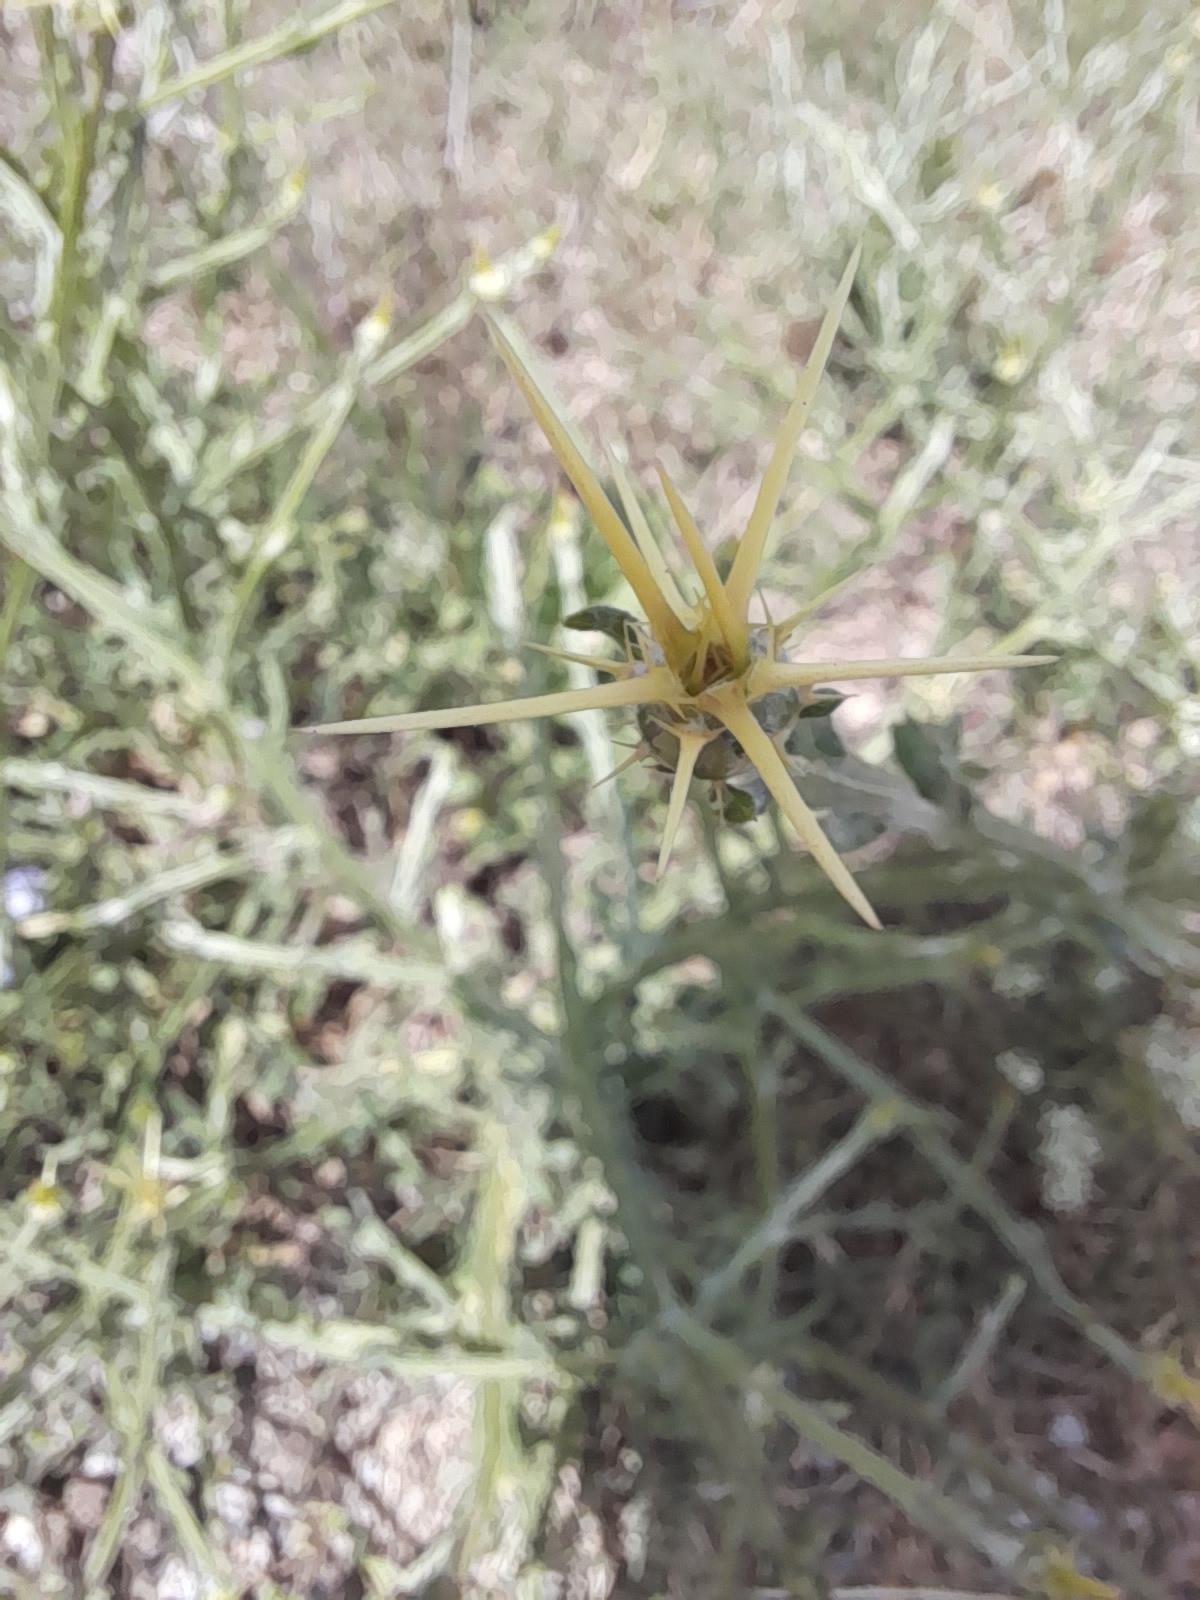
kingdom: Plantae
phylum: Tracheophyta
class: Magnoliopsida
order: Asterales
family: Asteraceae
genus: Centaurea
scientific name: Centaurea solstitialis
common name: Yellow star-thistle
